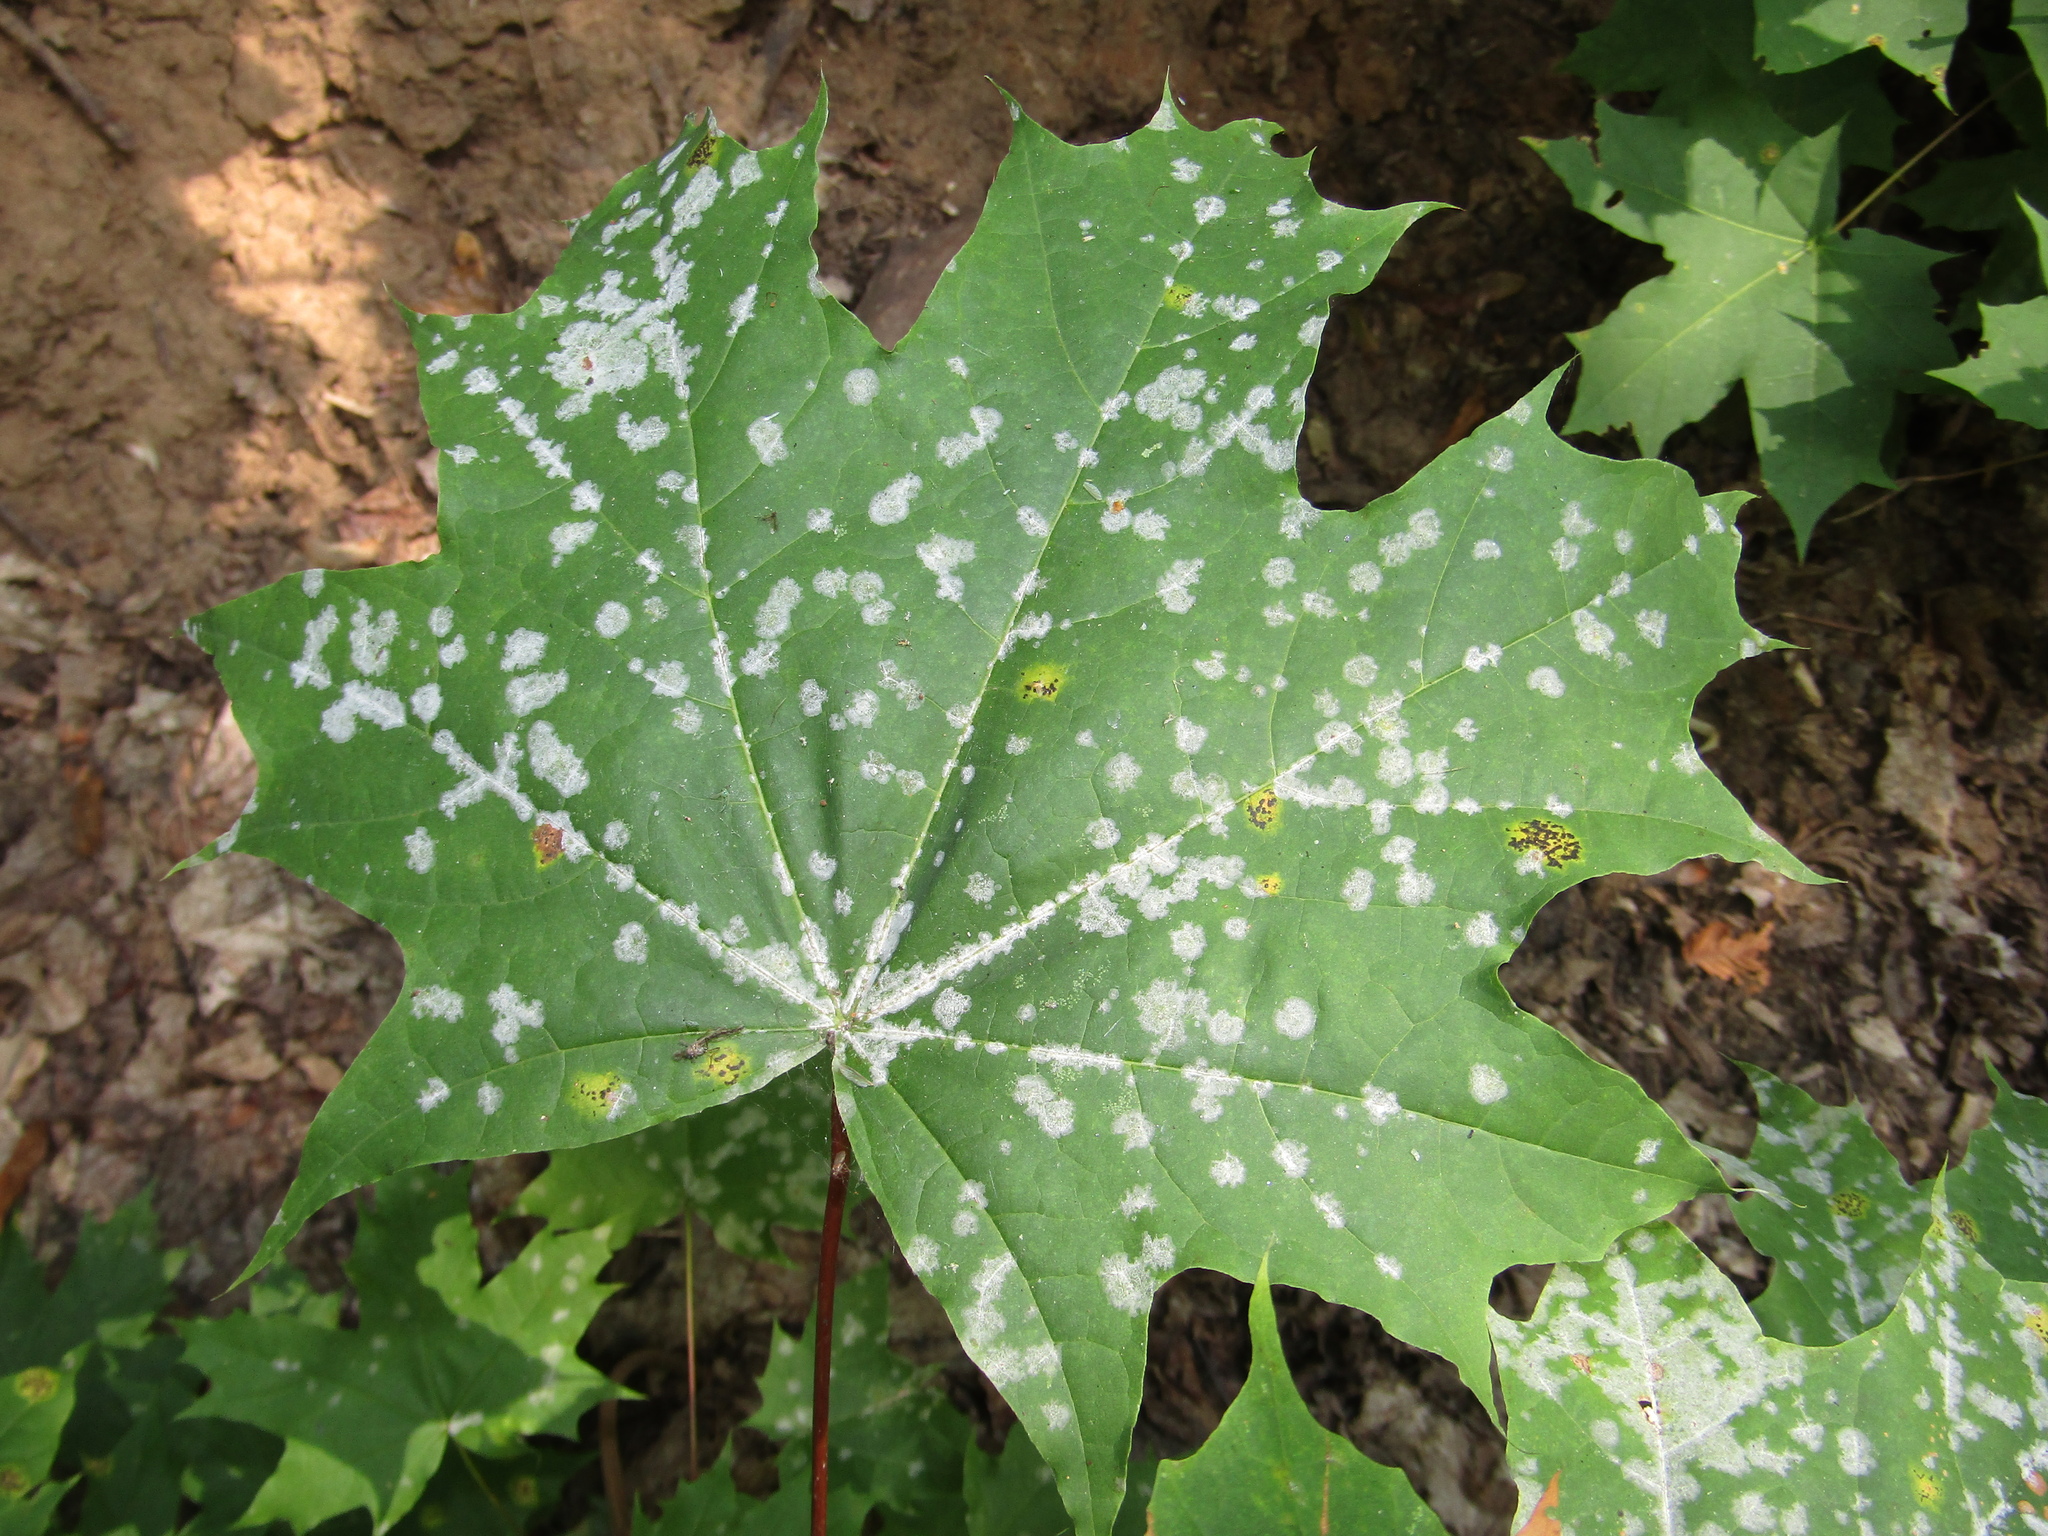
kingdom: Fungi
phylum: Ascomycota
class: Leotiomycetes
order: Helotiales
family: Erysiphaceae
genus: Sawadaea
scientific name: Sawadaea tulasnei
